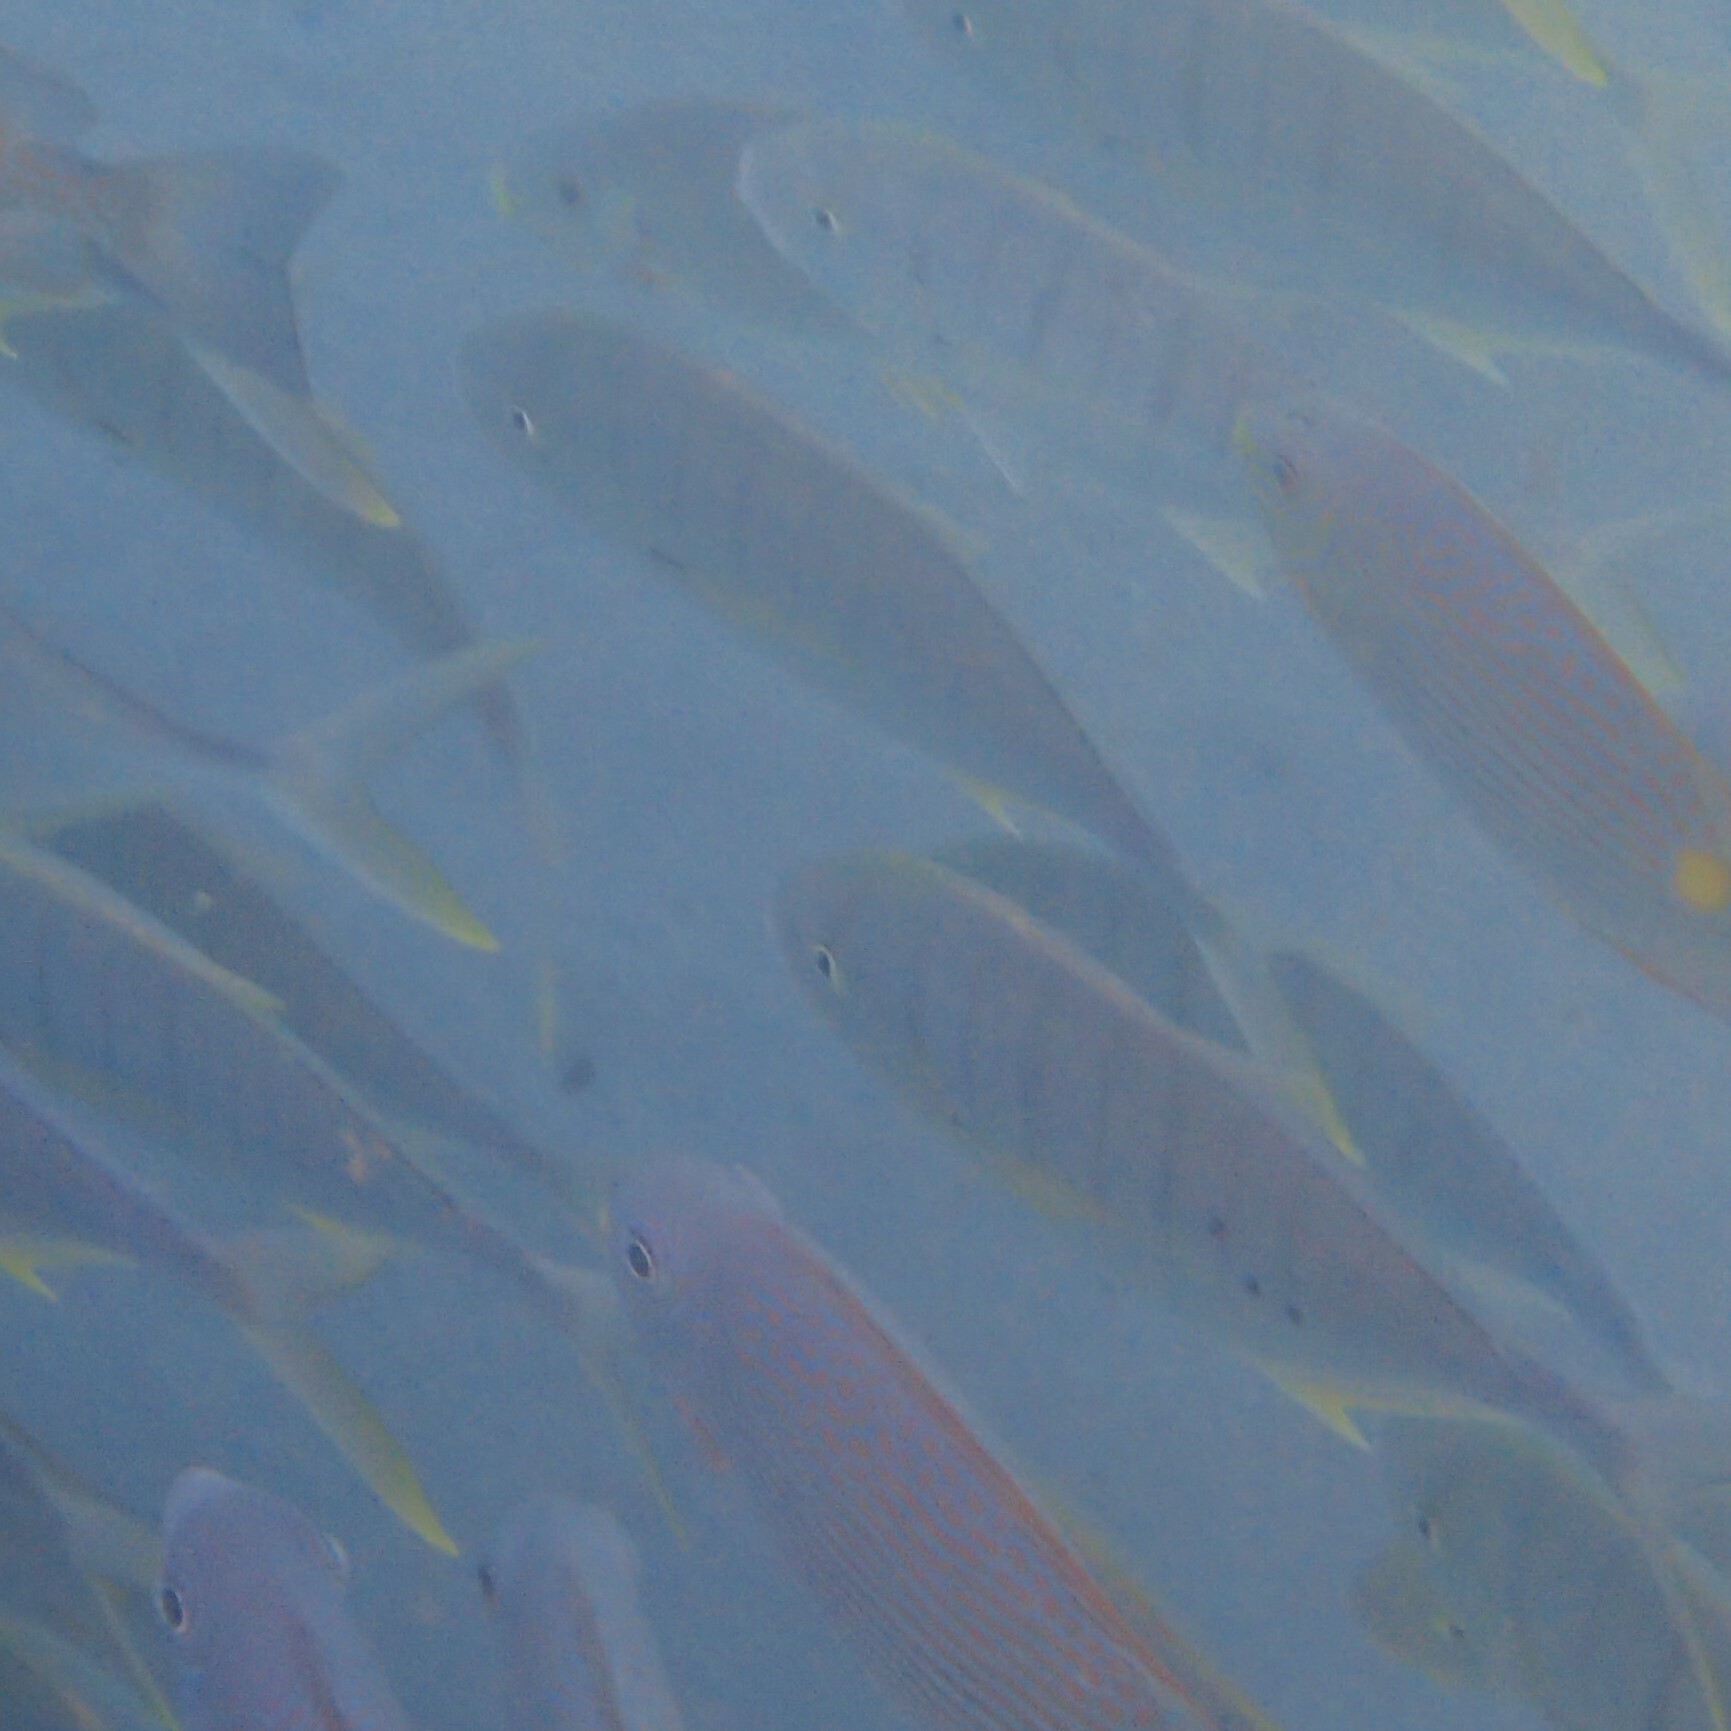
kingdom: Animalia
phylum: Chordata
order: Perciformes
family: Carangidae
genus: Gnathanodon
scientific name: Gnathanodon speciosus
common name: Golden toothless trevally
